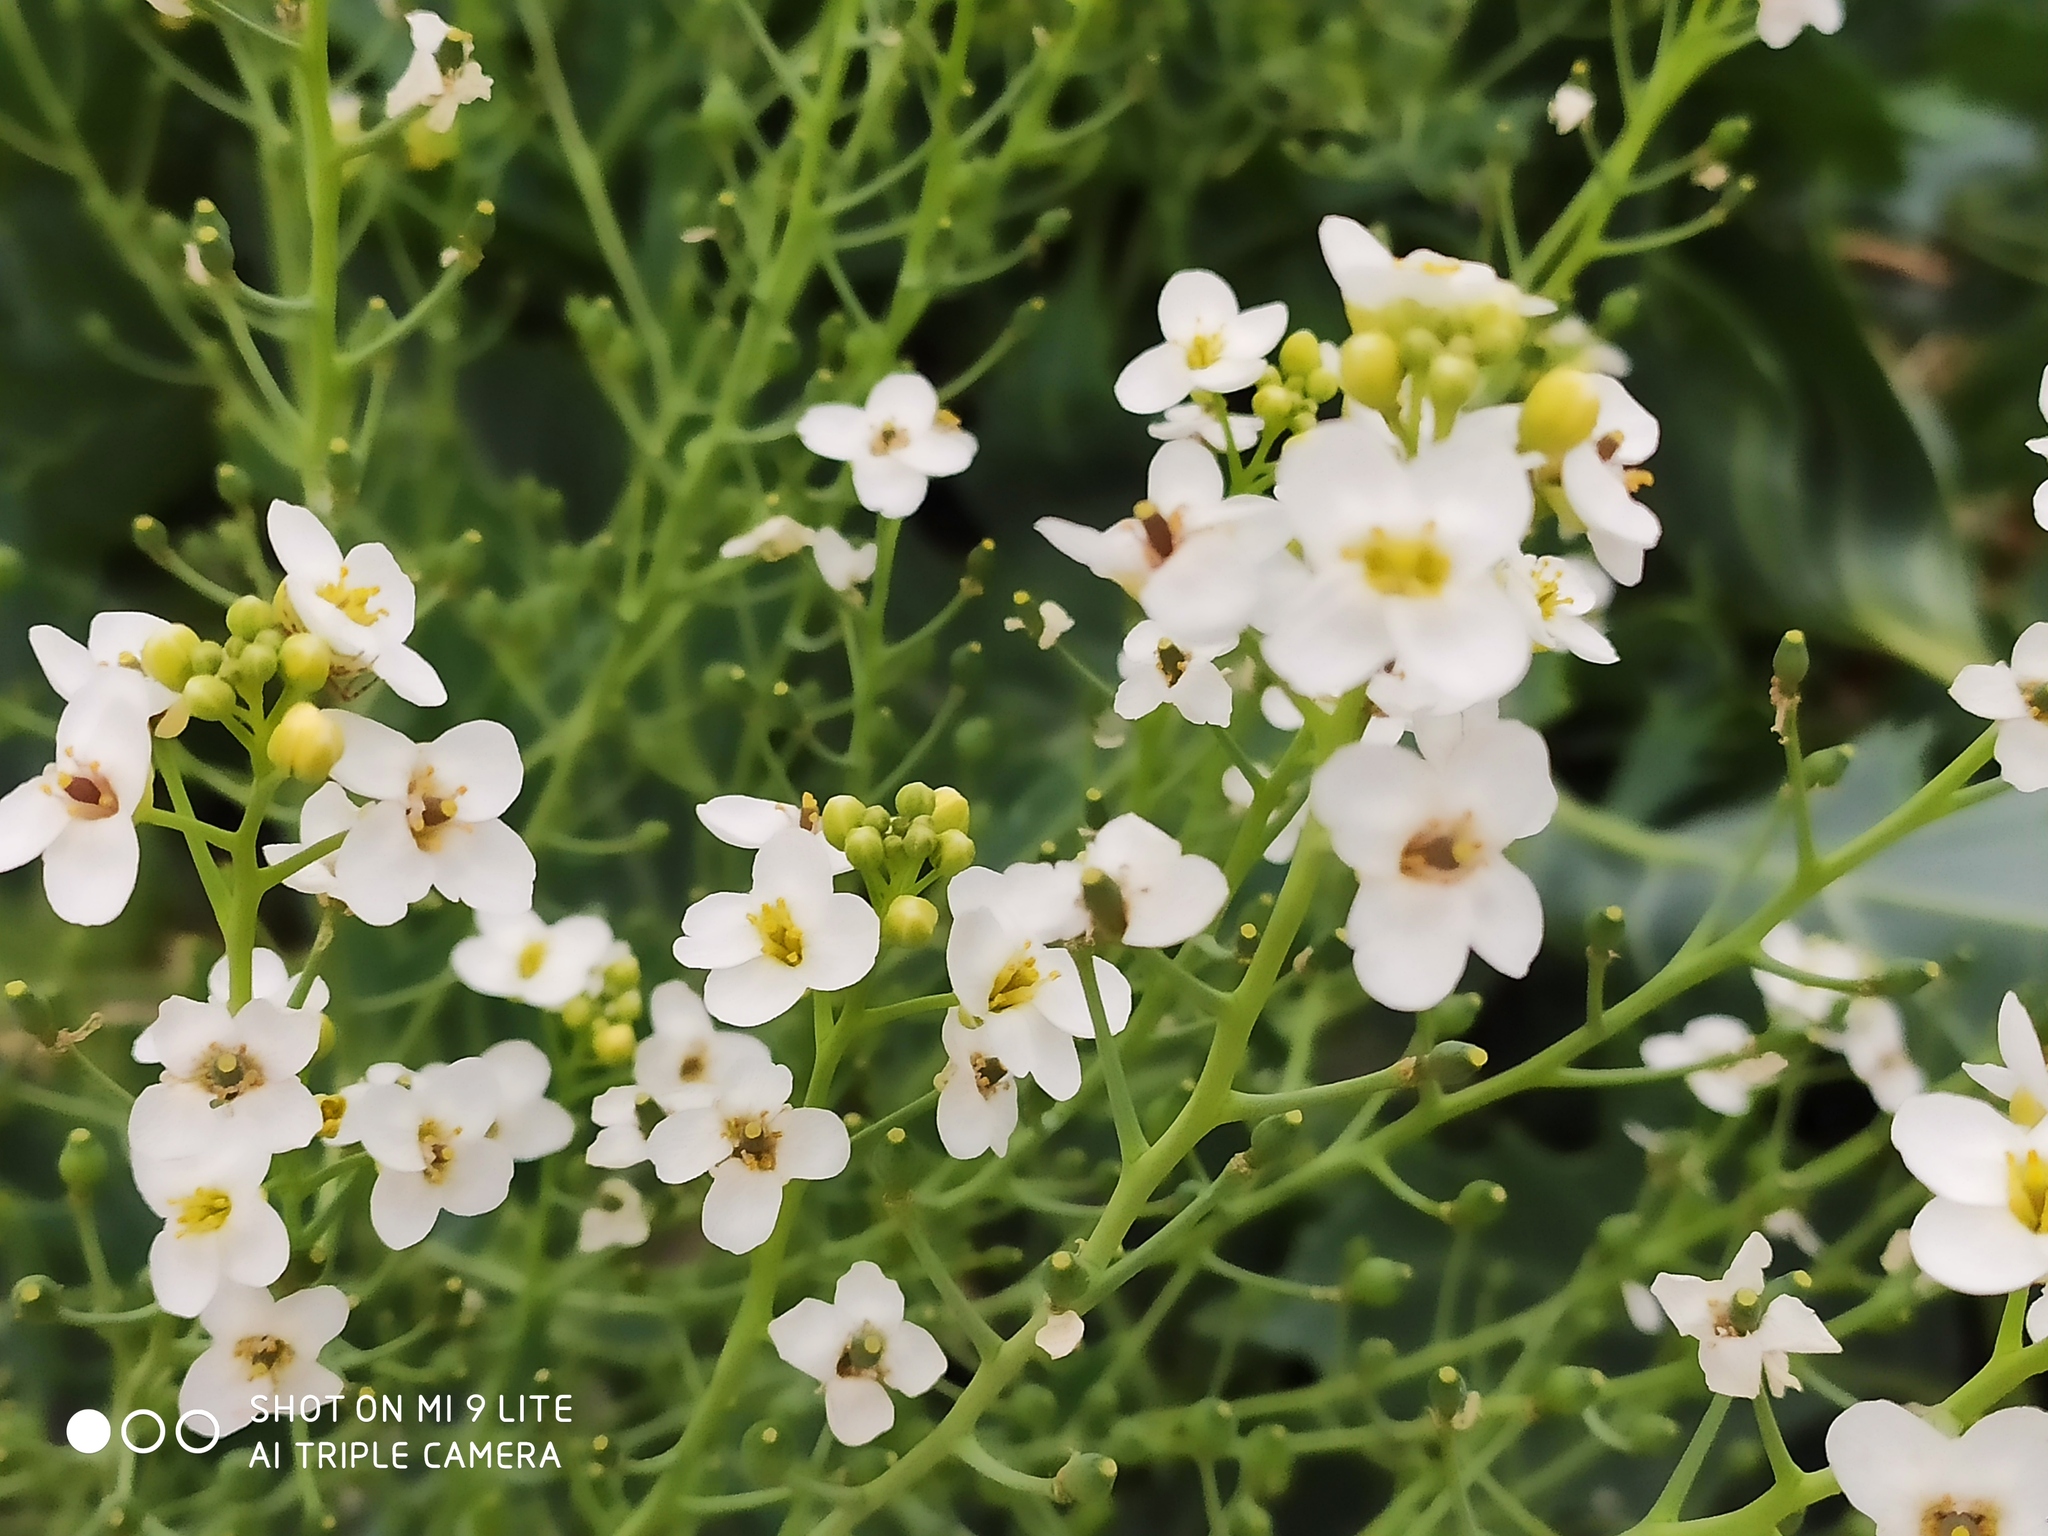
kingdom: Plantae
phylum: Tracheophyta
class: Magnoliopsida
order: Brassicales
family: Brassicaceae
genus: Crambe
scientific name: Crambe maritima
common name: Sea-kale
